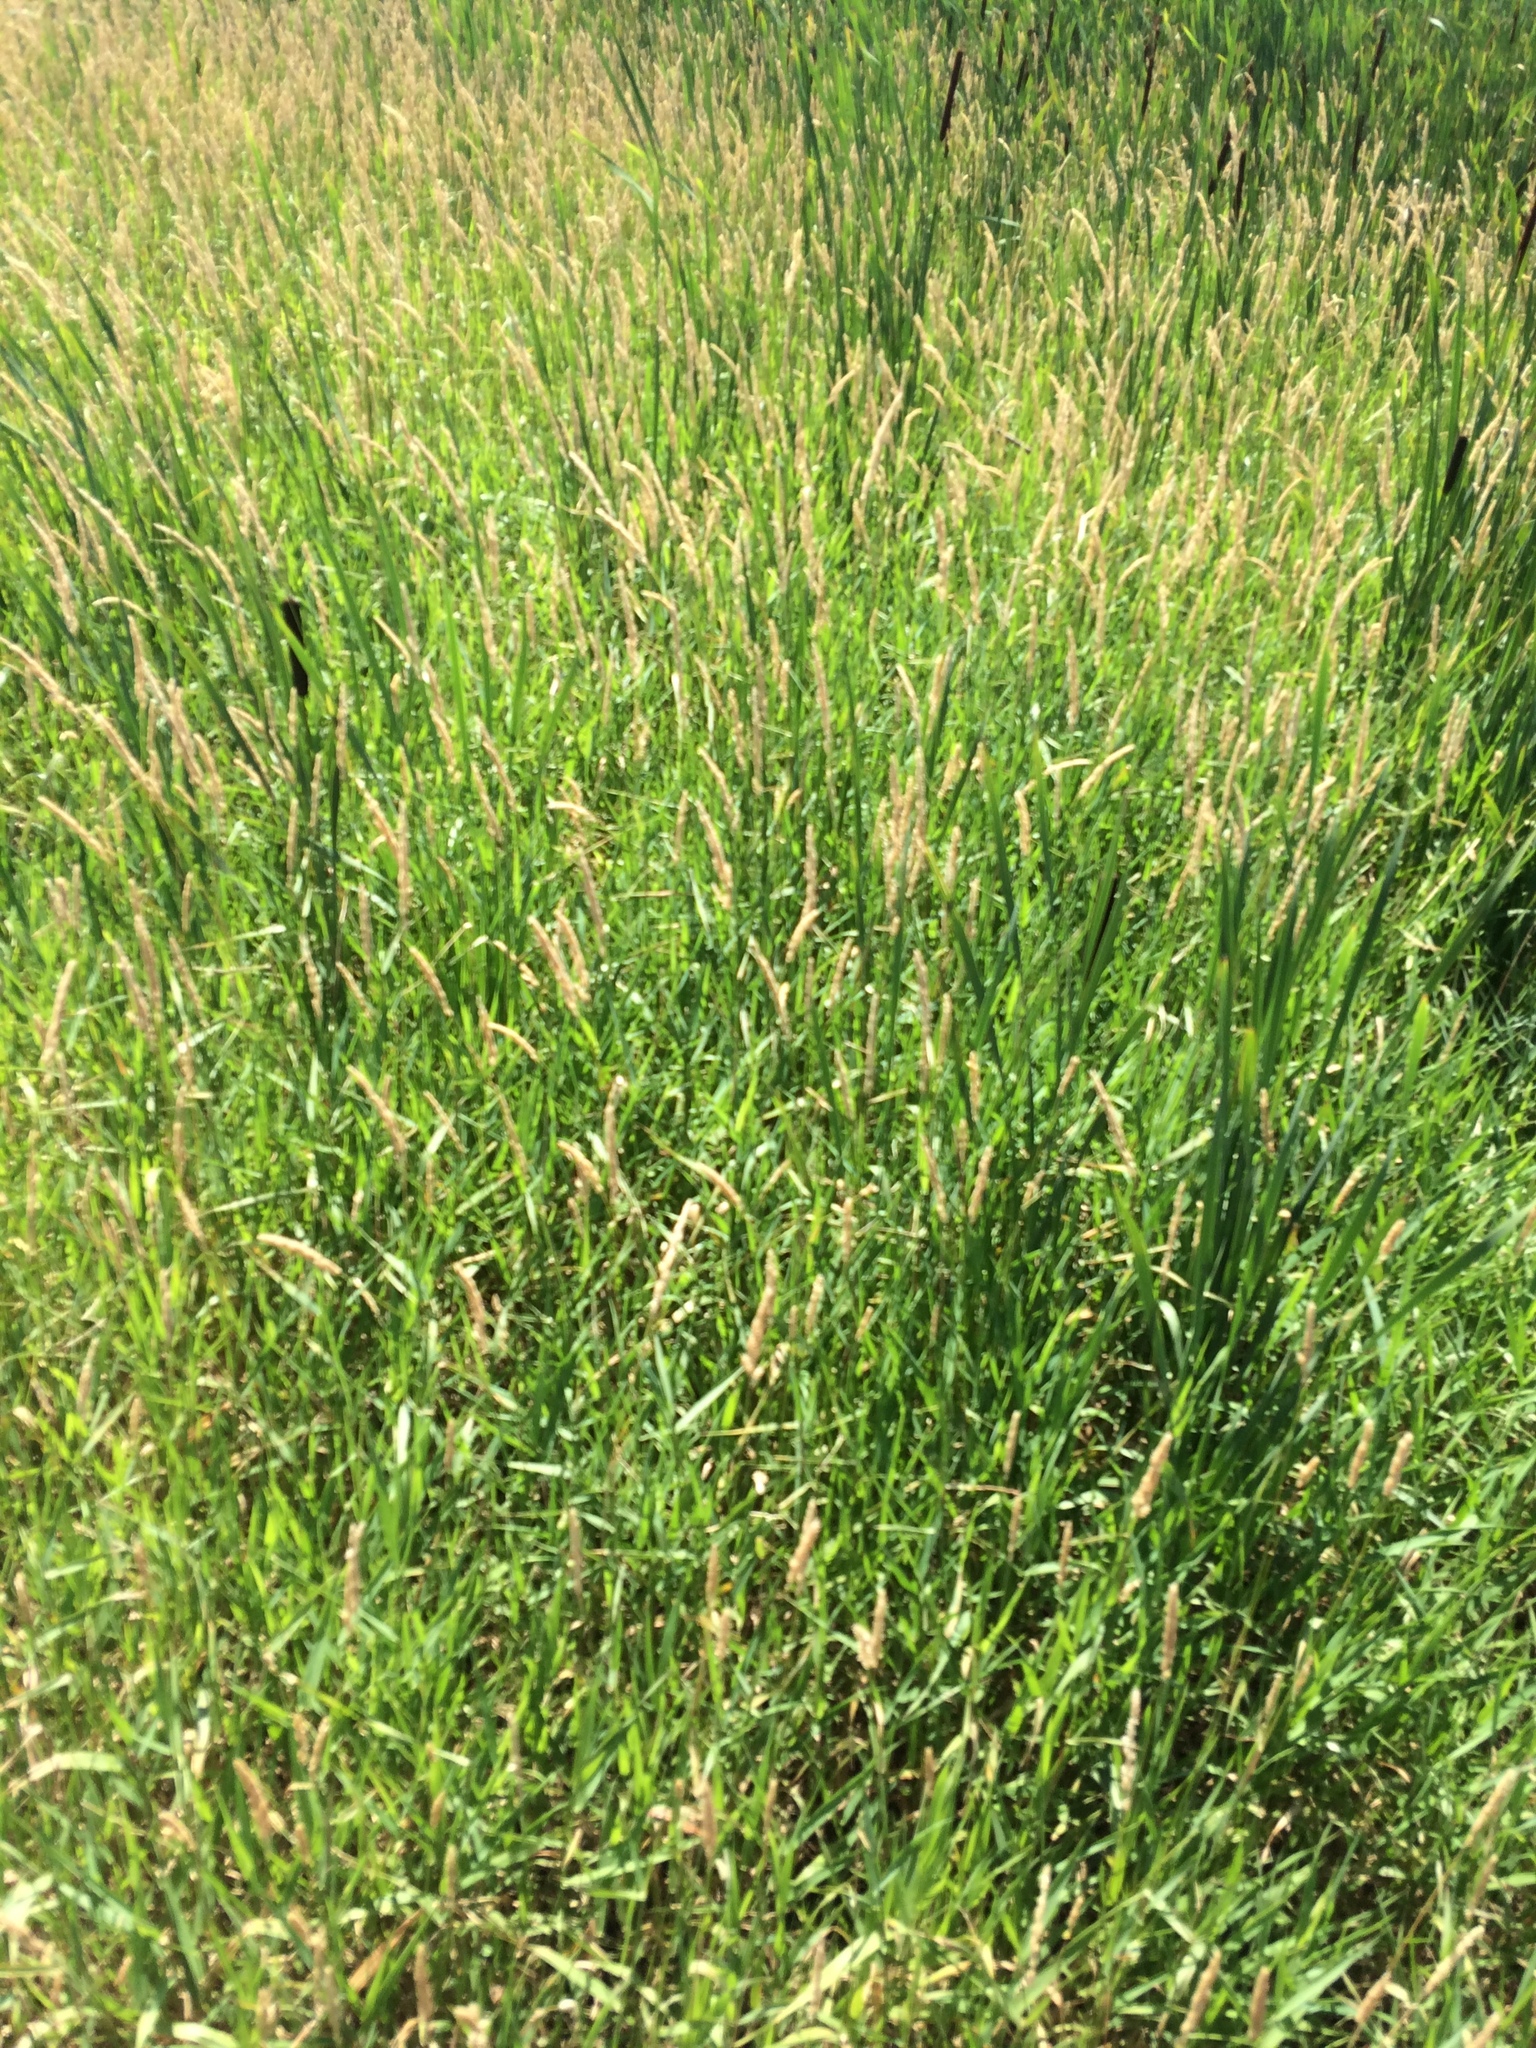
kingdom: Plantae
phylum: Tracheophyta
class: Liliopsida
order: Poales
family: Poaceae
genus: Phalaris
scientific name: Phalaris arundinacea
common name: Reed canary-grass
